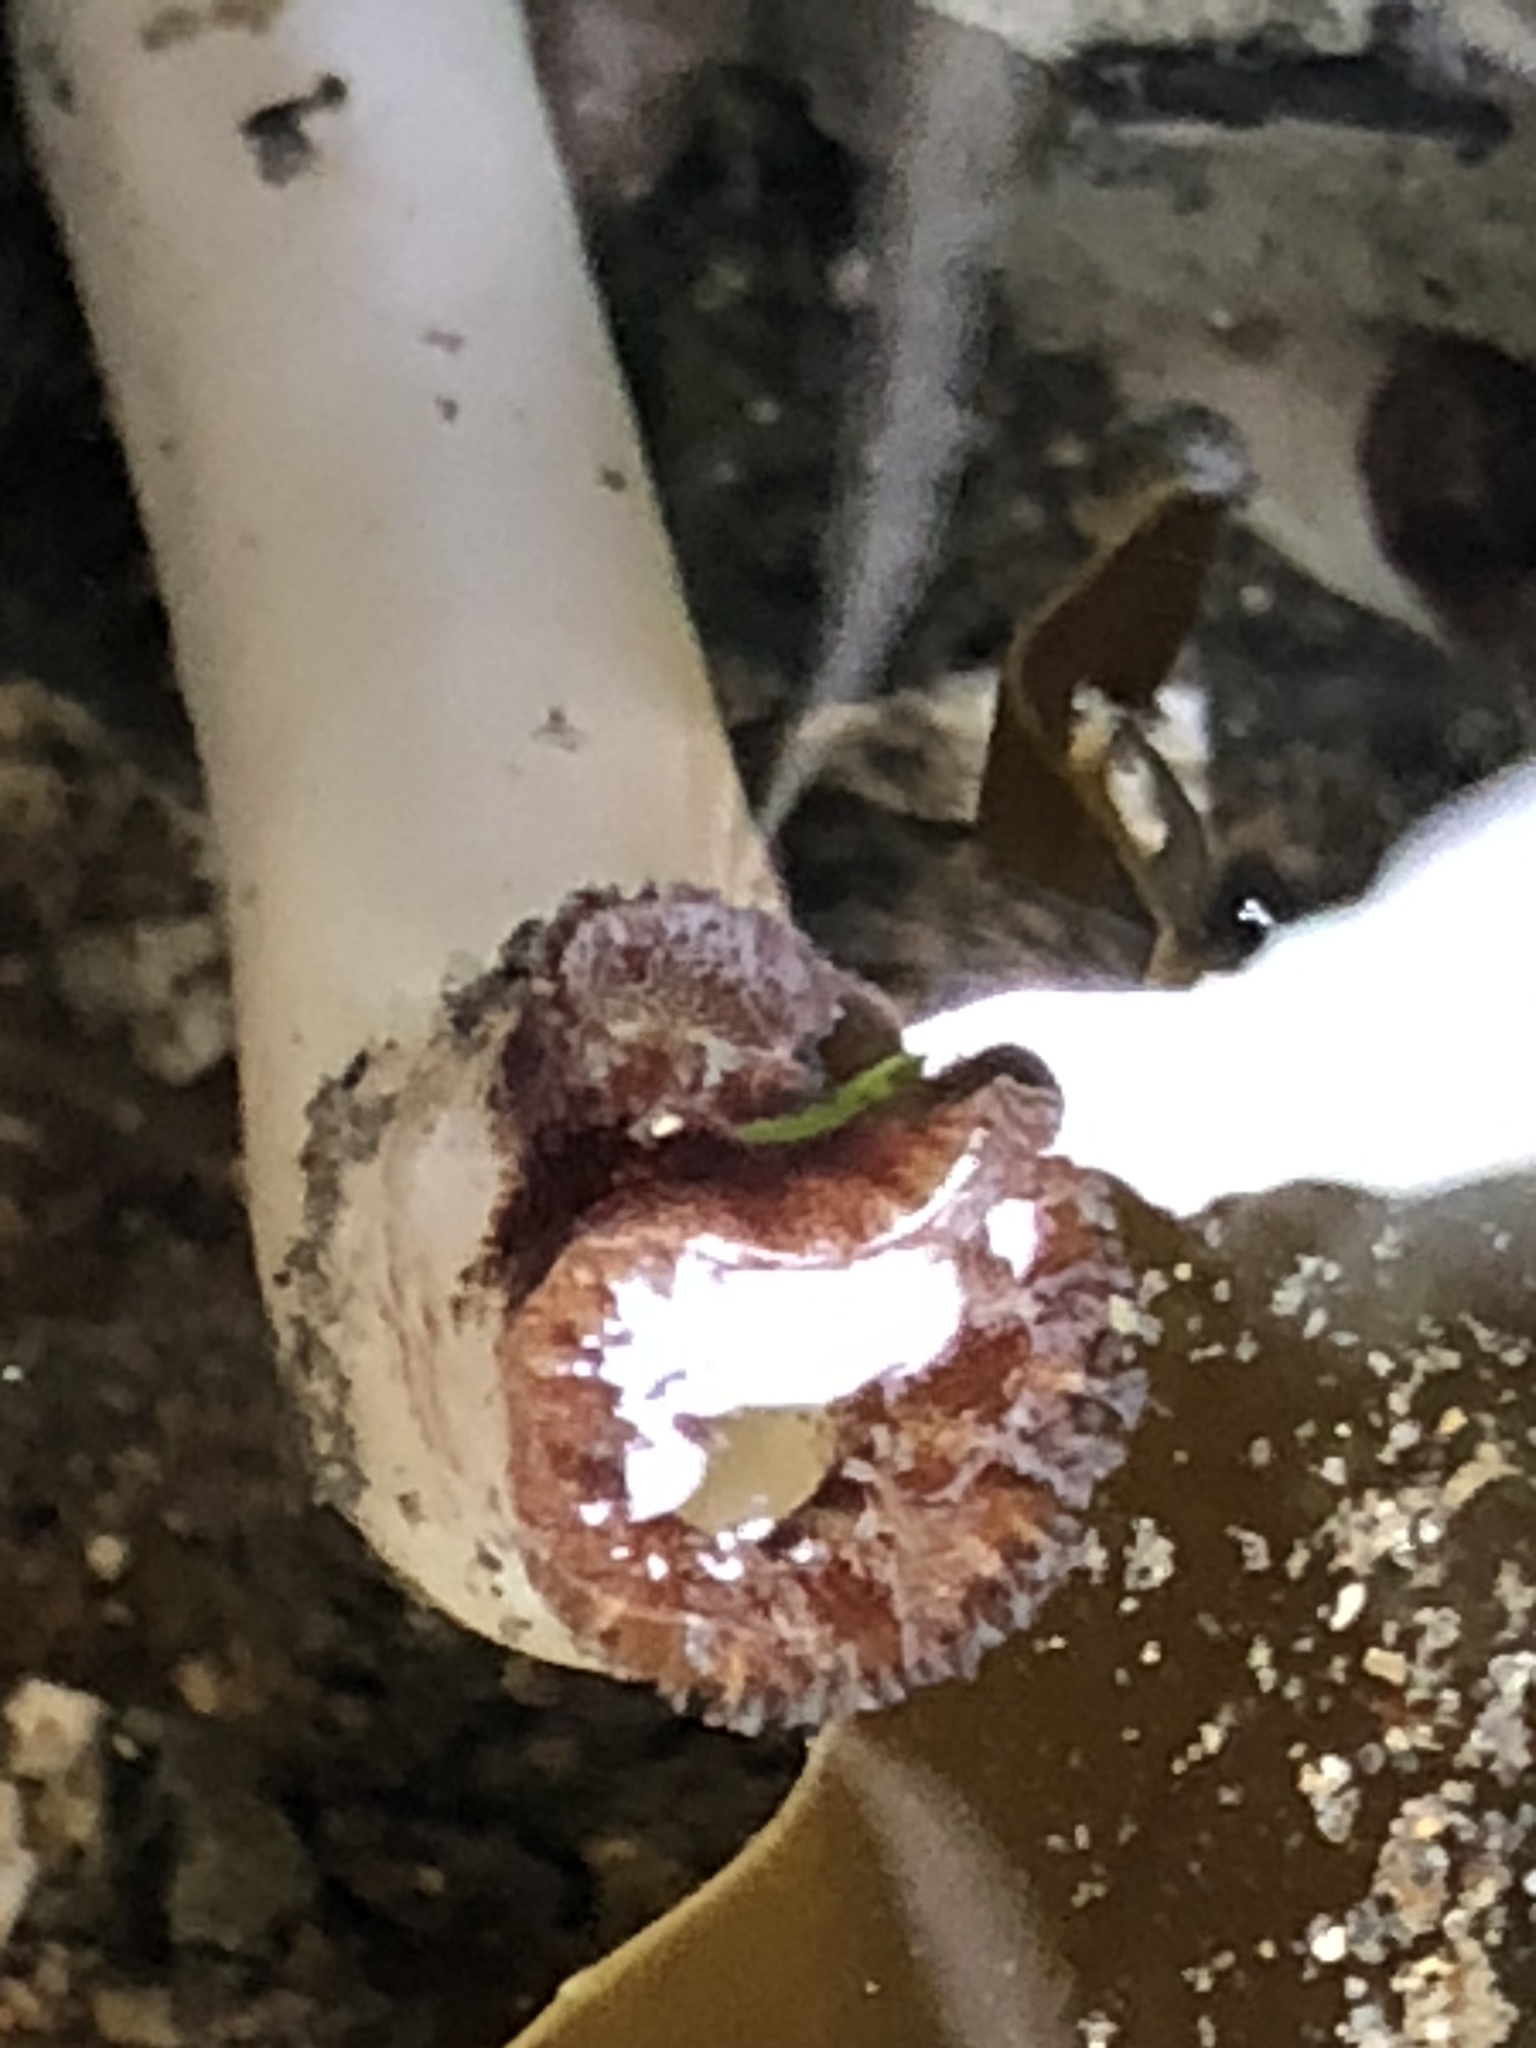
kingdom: Animalia
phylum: Mollusca
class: Bivalvia
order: Myida
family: Pholadidae
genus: Parapholas
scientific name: Parapholas californica
